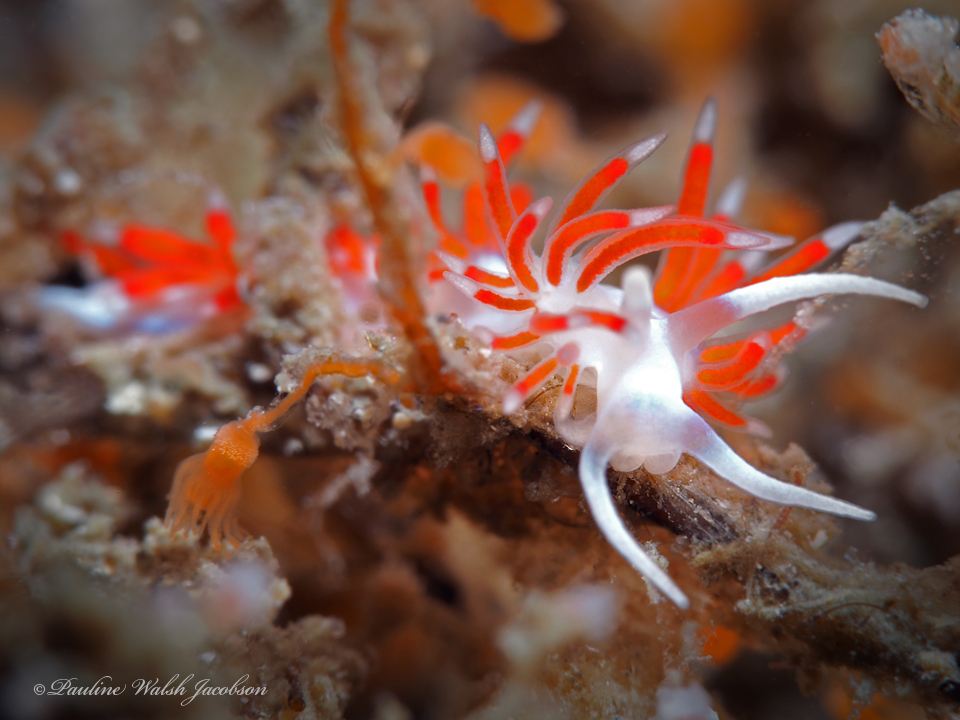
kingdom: Animalia
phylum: Mollusca
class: Gastropoda
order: Nudibranchia
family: Flabellinidae
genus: Flabellina
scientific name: Flabellina dushia
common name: Dushia flabellina
